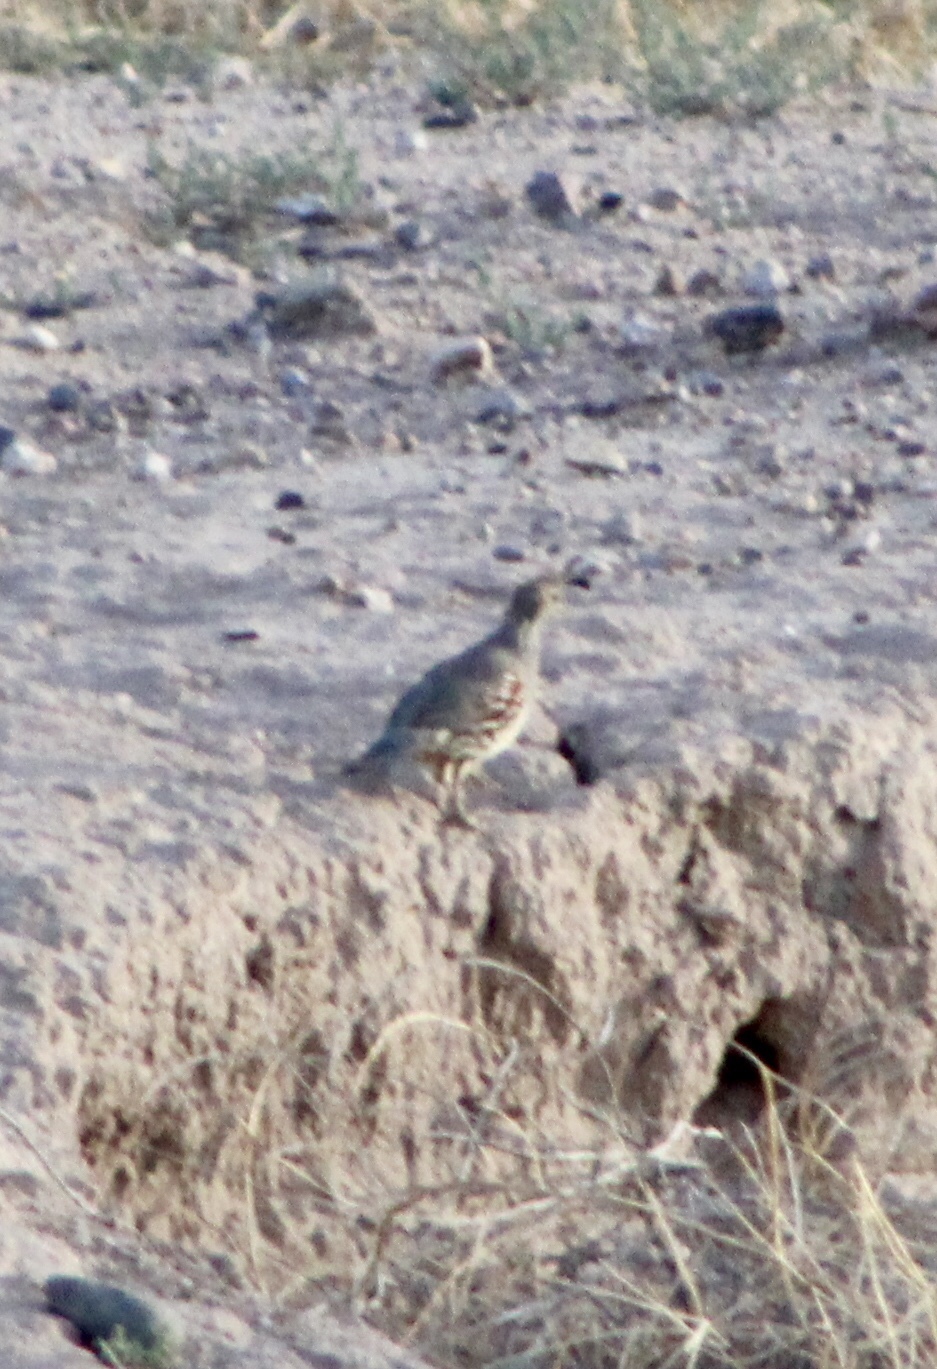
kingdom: Animalia
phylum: Chordata
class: Aves
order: Galliformes
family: Odontophoridae
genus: Callipepla
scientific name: Callipepla gambelii
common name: Gambel's quail
